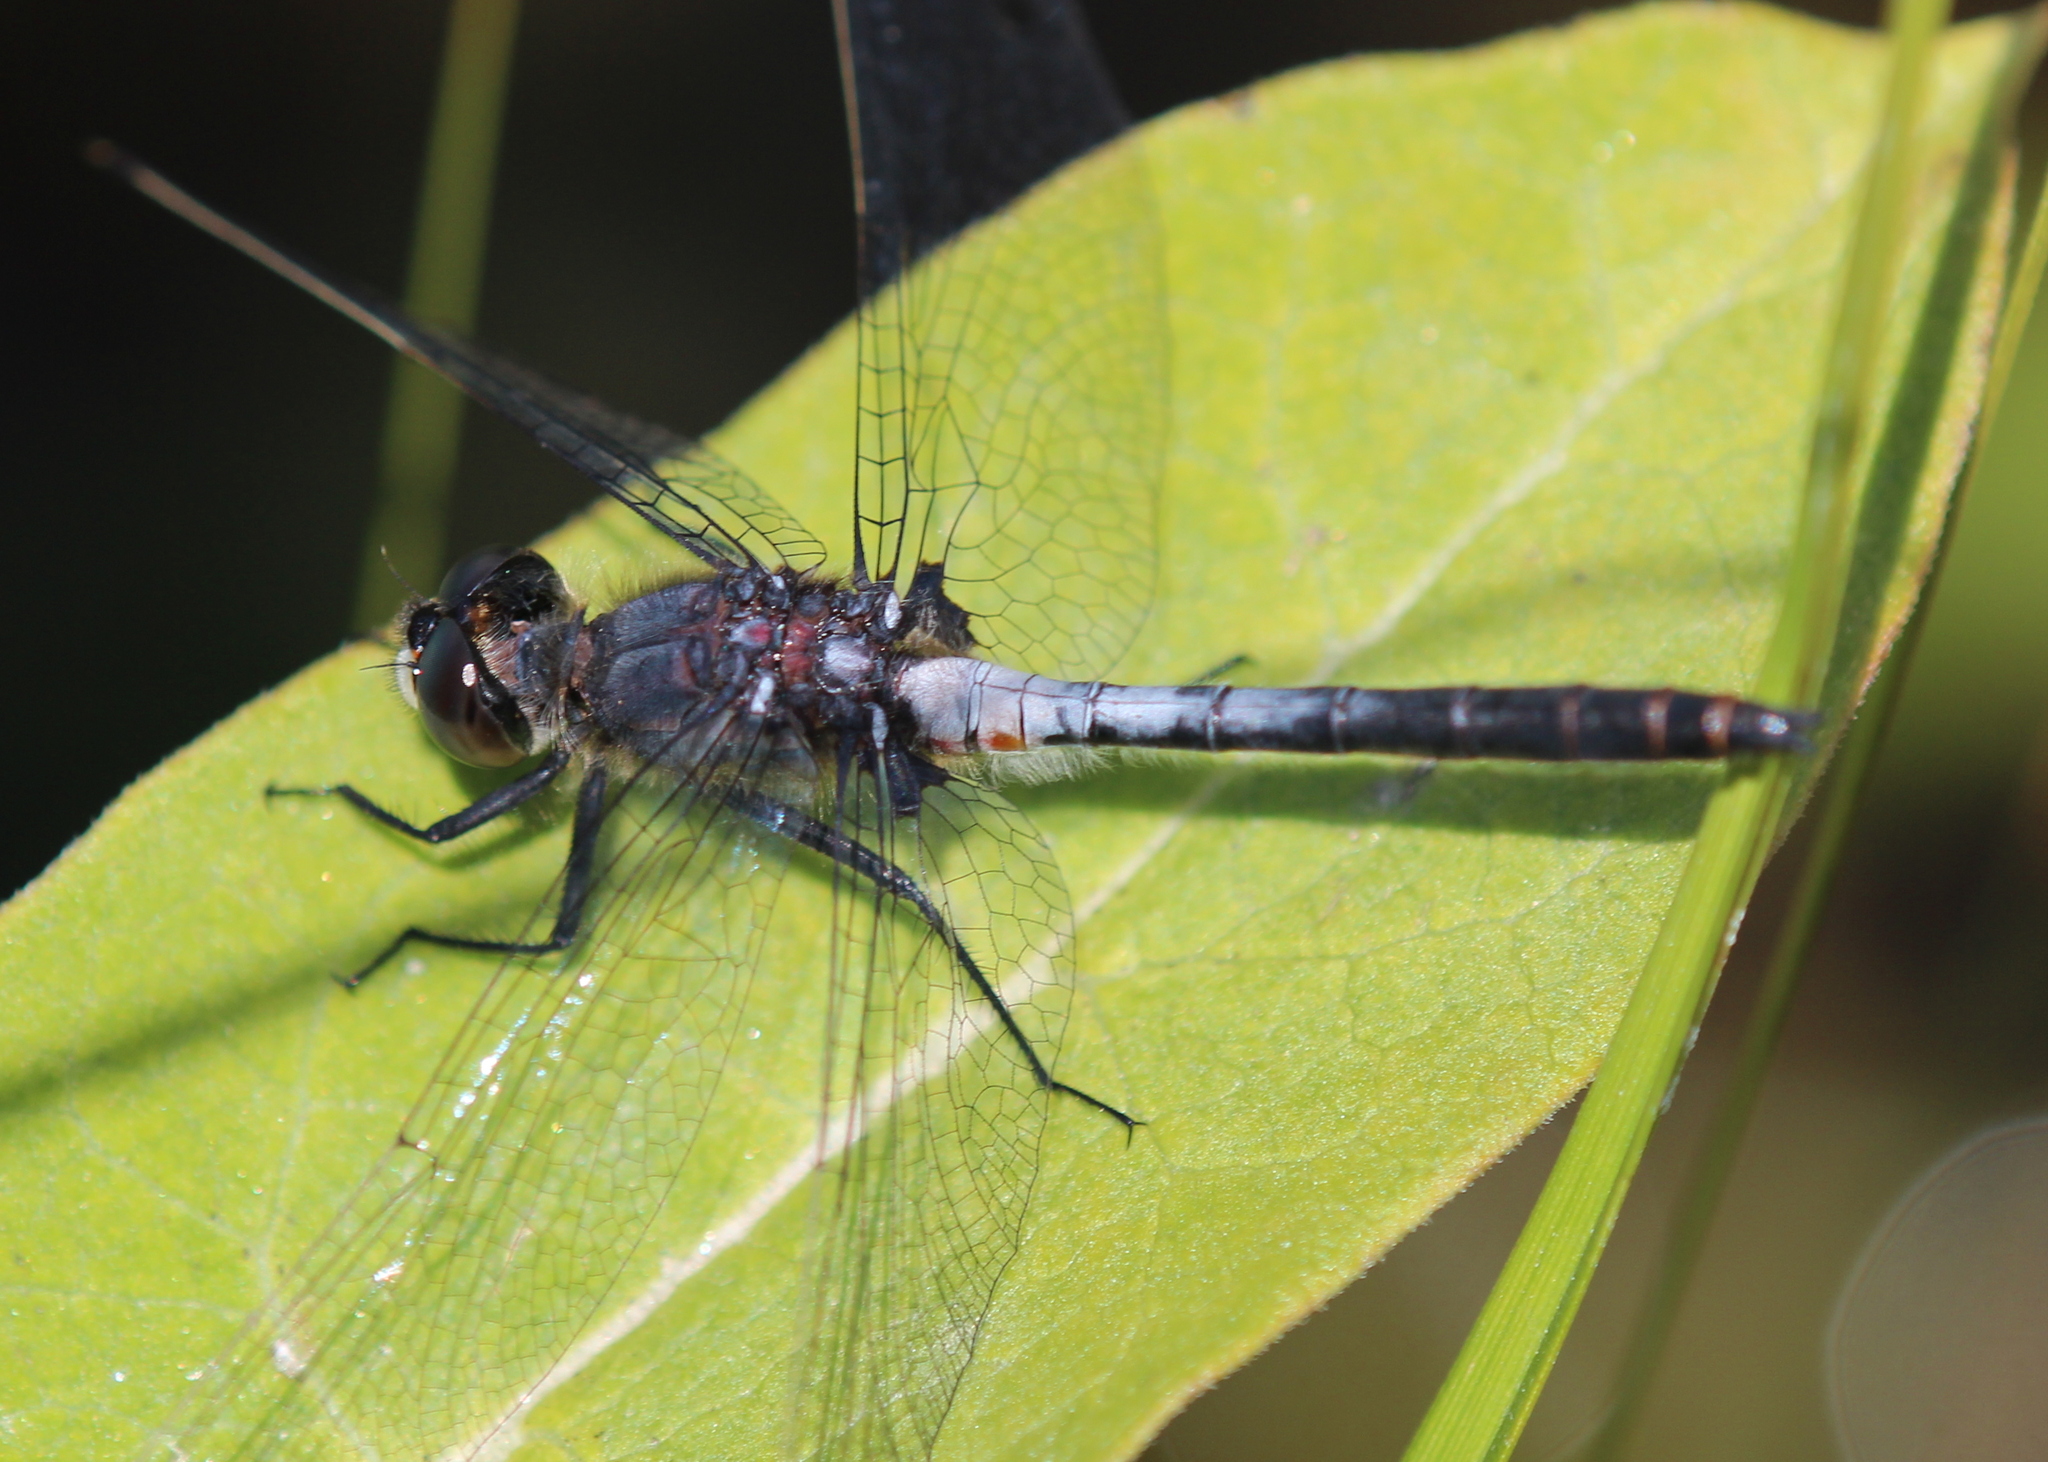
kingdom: Animalia
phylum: Arthropoda
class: Insecta
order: Odonata
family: Libellulidae
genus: Leucorrhinia
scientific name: Leucorrhinia proxima
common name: Belted whiteface
